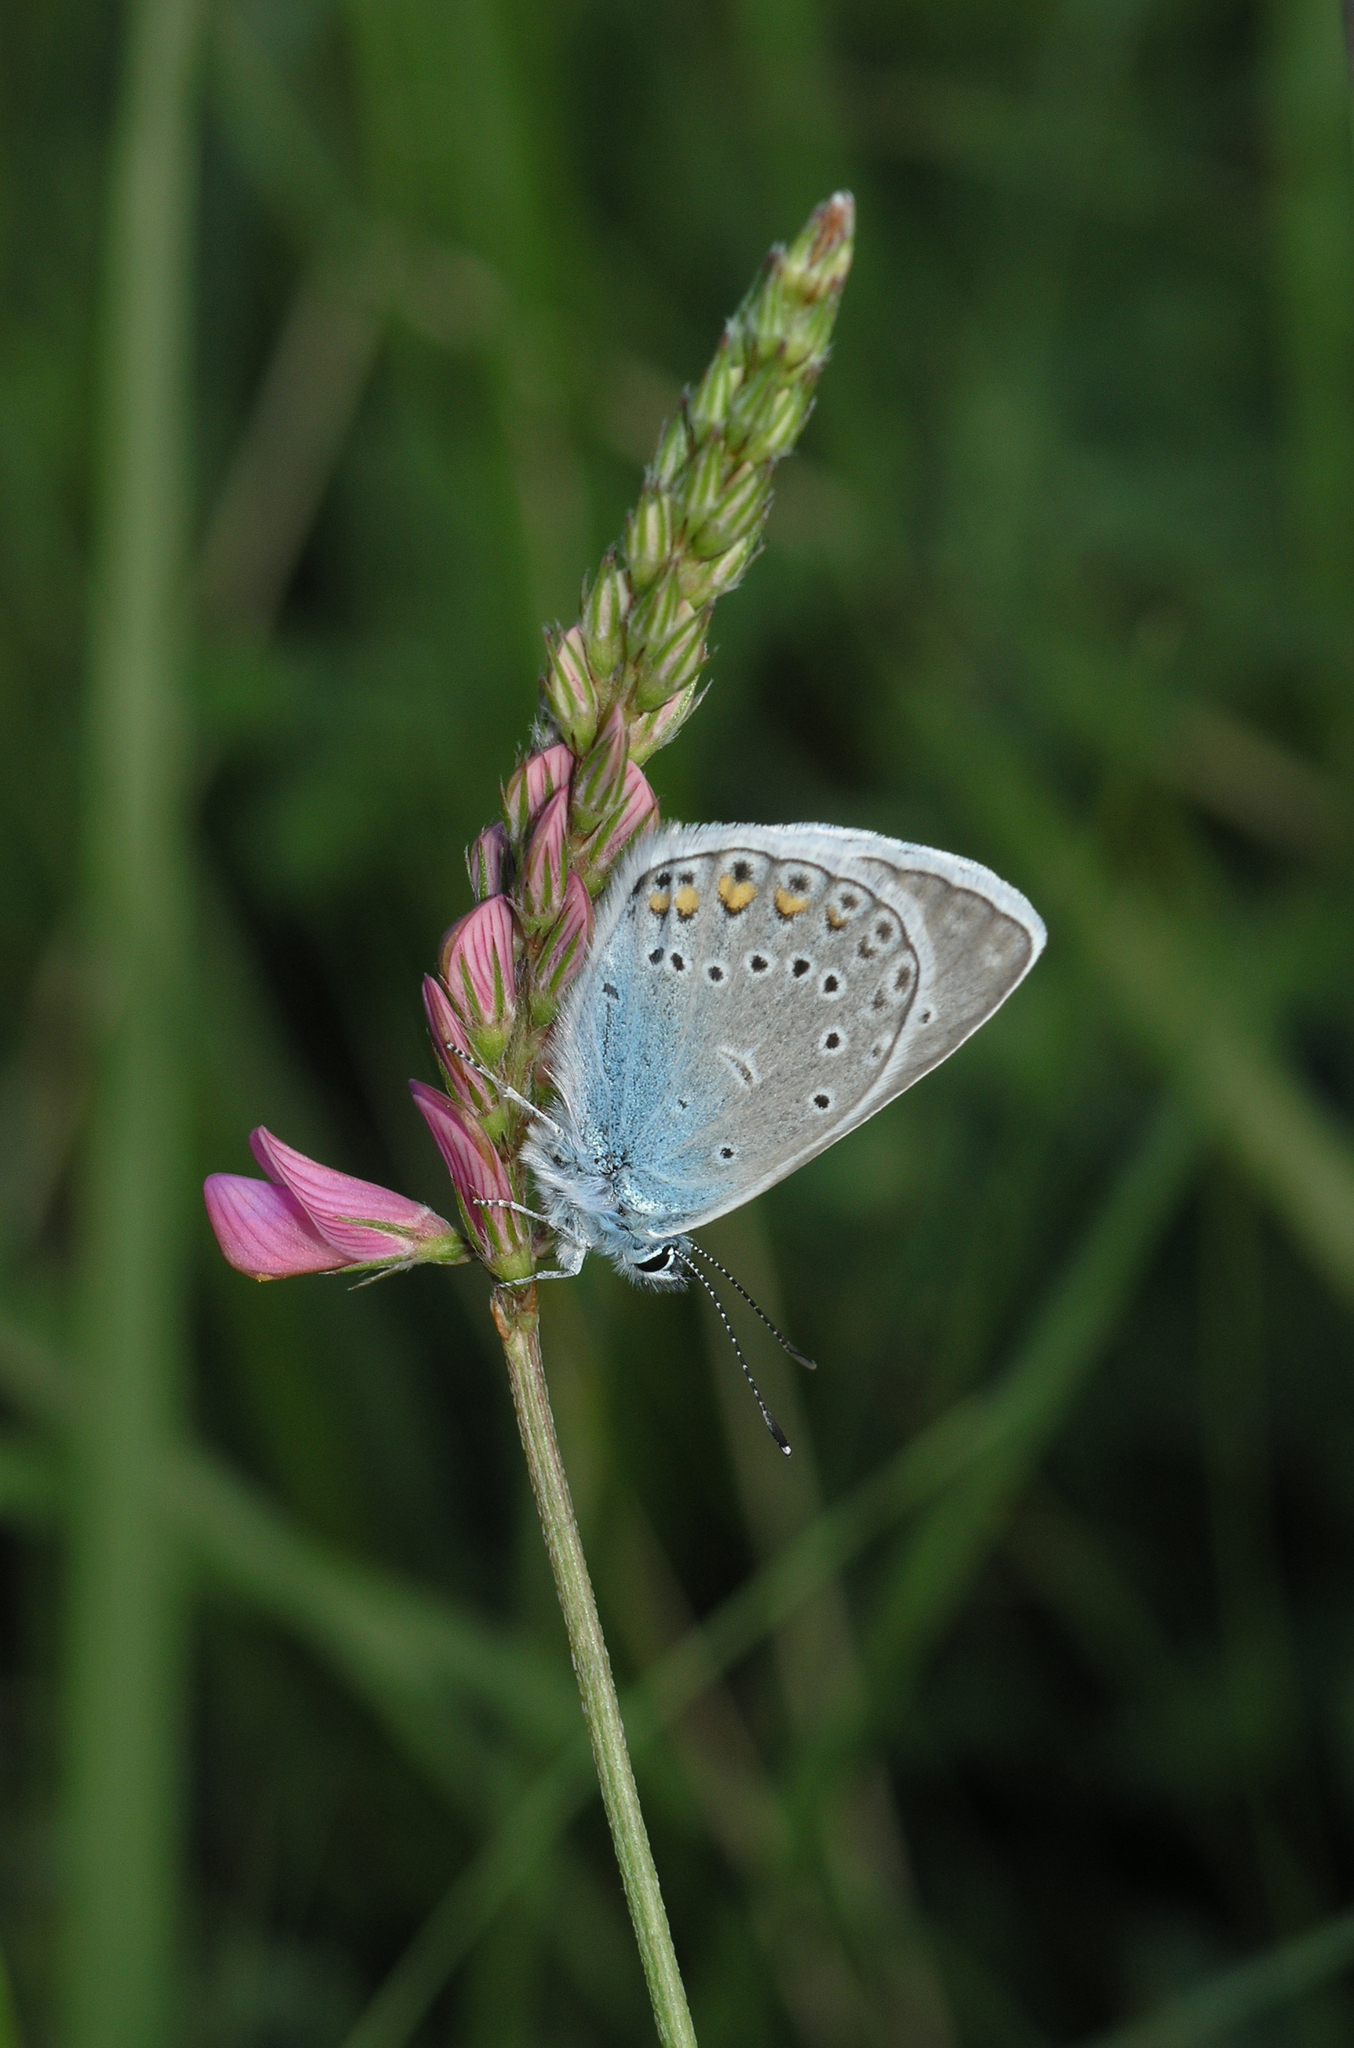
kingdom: Plantae
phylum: Tracheophyta
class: Magnoliopsida
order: Fabales
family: Fabaceae
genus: Onobrychis
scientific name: Onobrychis arenaria
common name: Sand esparcet
